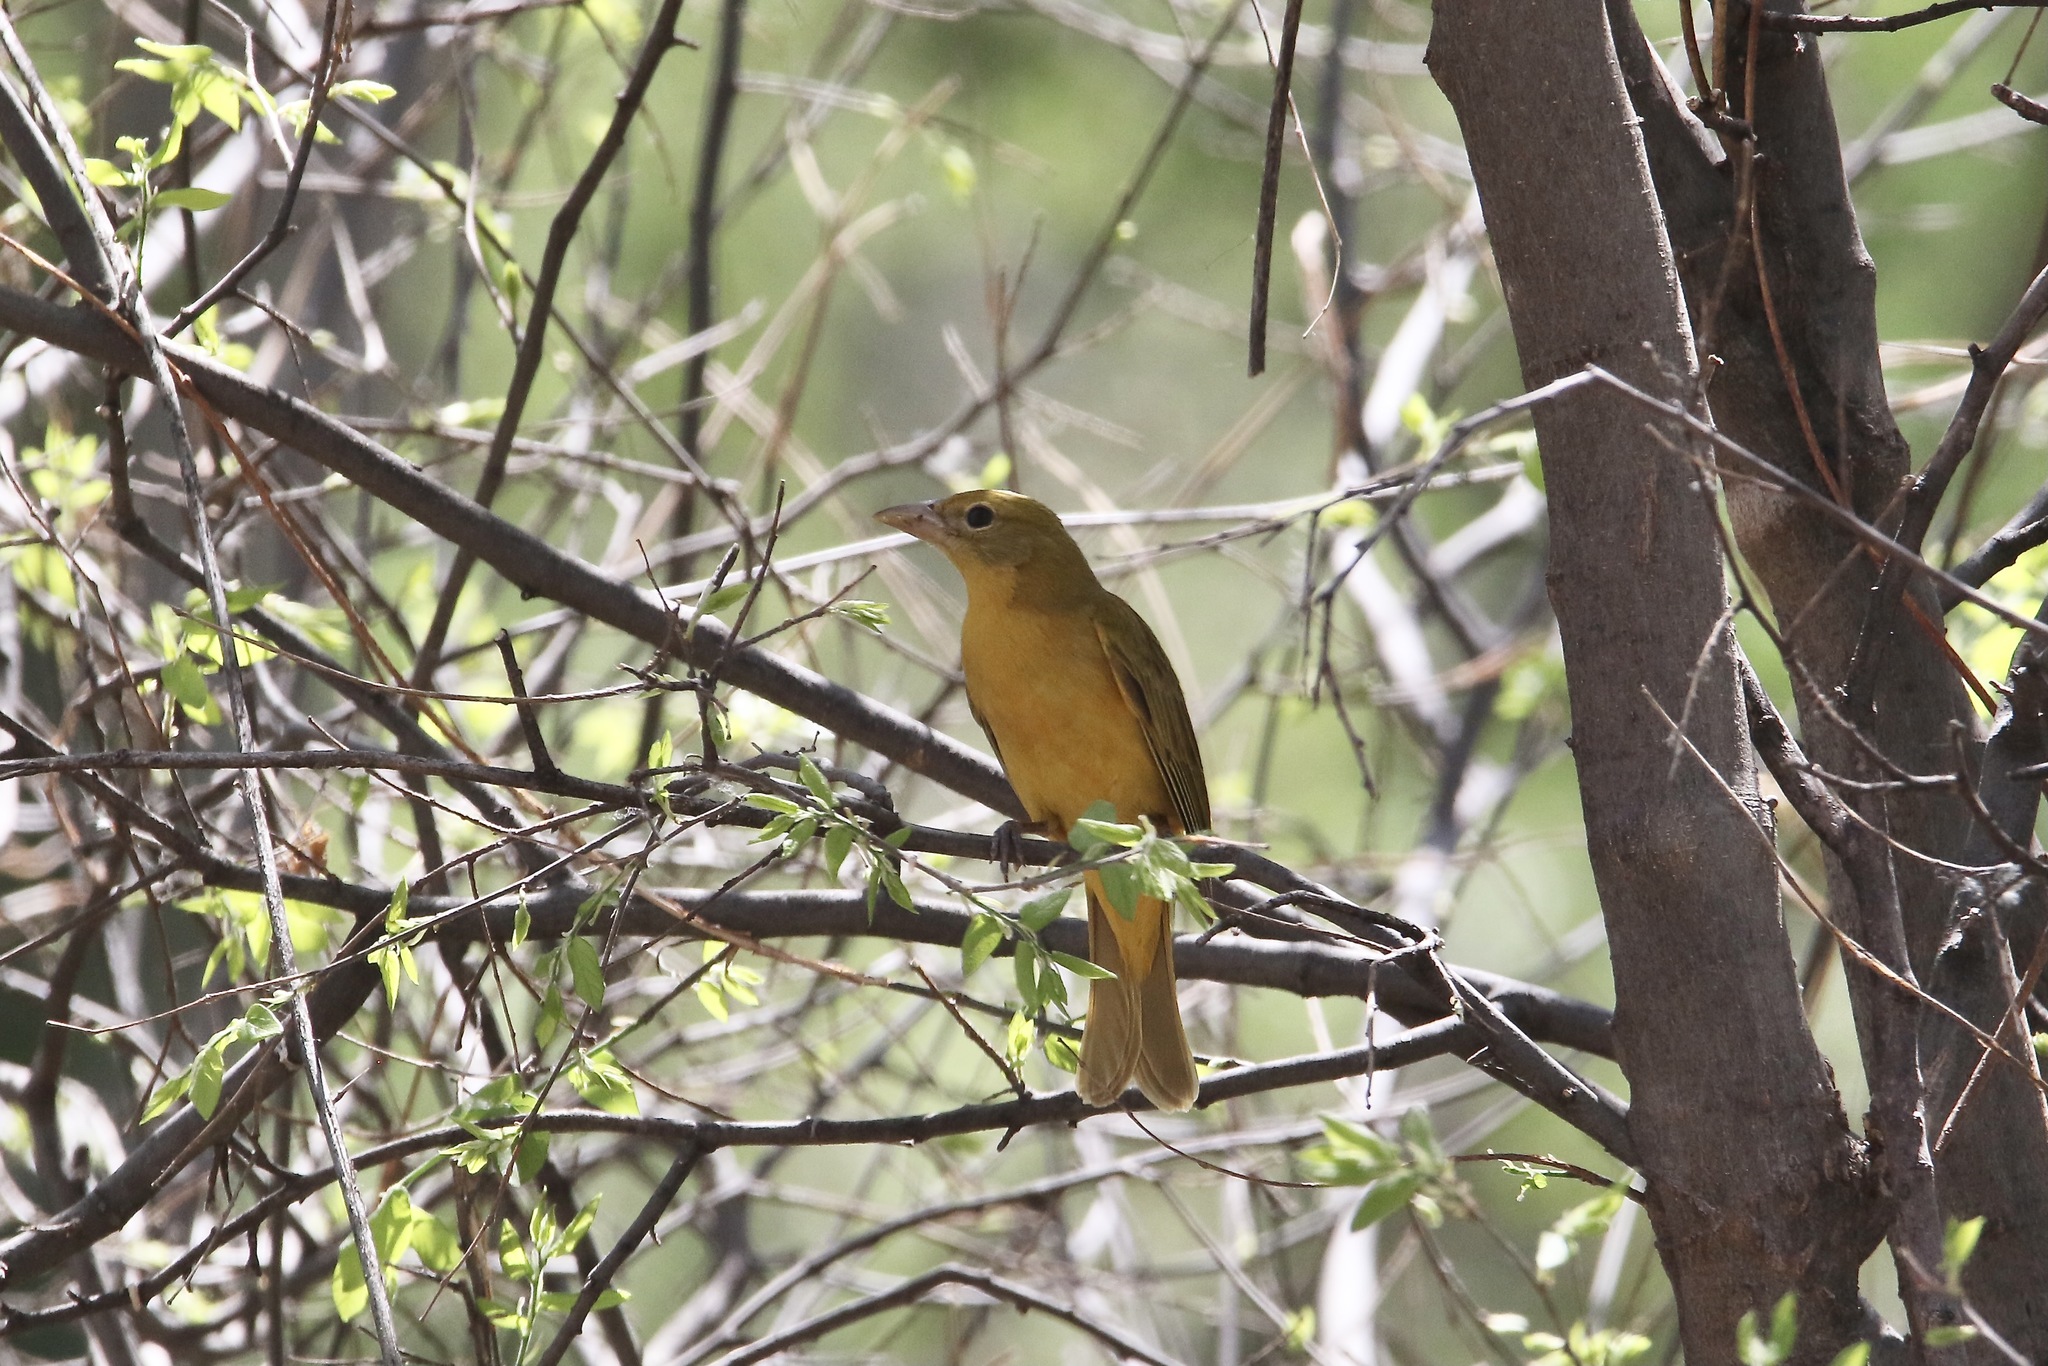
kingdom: Animalia
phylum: Chordata
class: Aves
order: Passeriformes
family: Cardinalidae
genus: Piranga
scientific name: Piranga rubra
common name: Summer tanager
